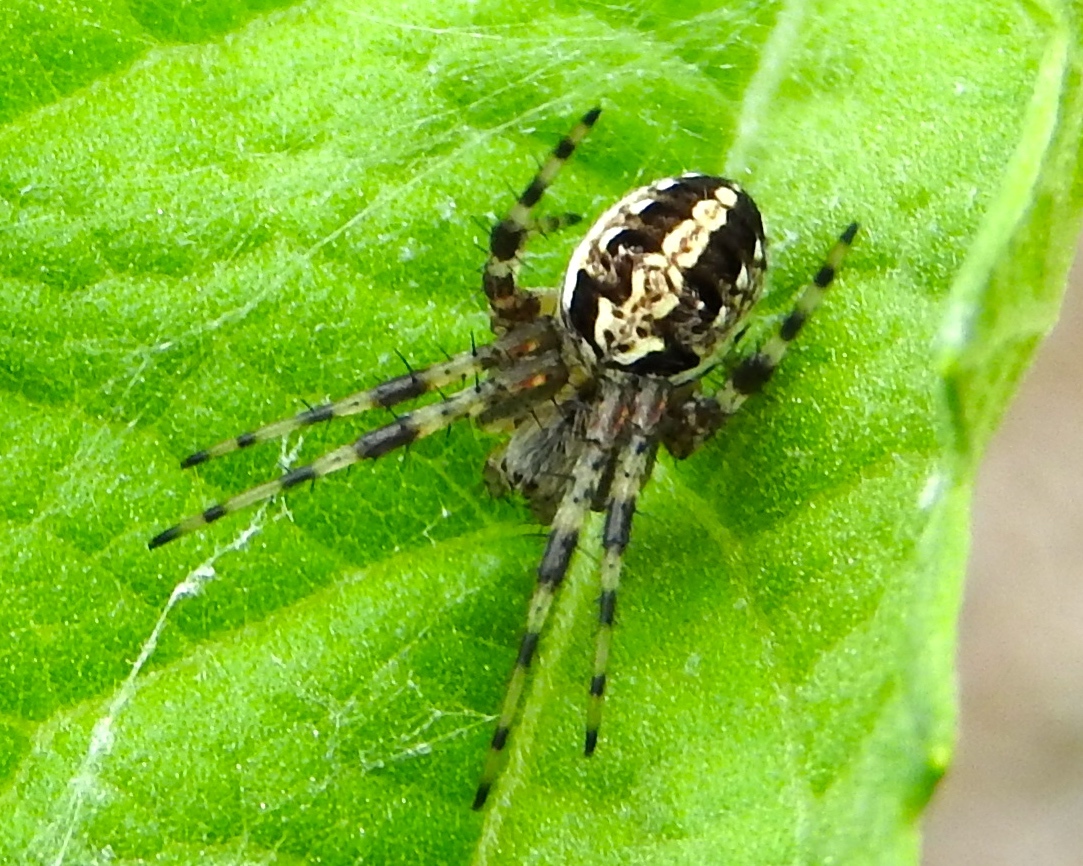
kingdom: Animalia
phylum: Arthropoda
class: Arachnida
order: Araneae
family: Araneidae
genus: Neoscona
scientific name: Neoscona oaxacensis
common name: Orb weavers
